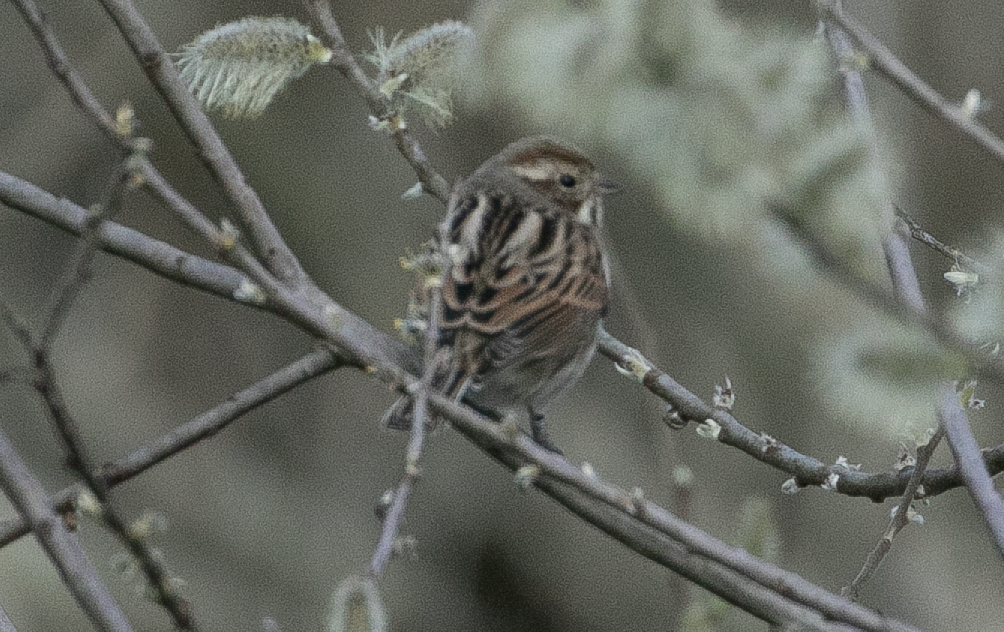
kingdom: Animalia
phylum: Chordata
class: Aves
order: Passeriformes
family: Emberizidae
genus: Emberiza
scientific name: Emberiza schoeniclus
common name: Reed bunting
